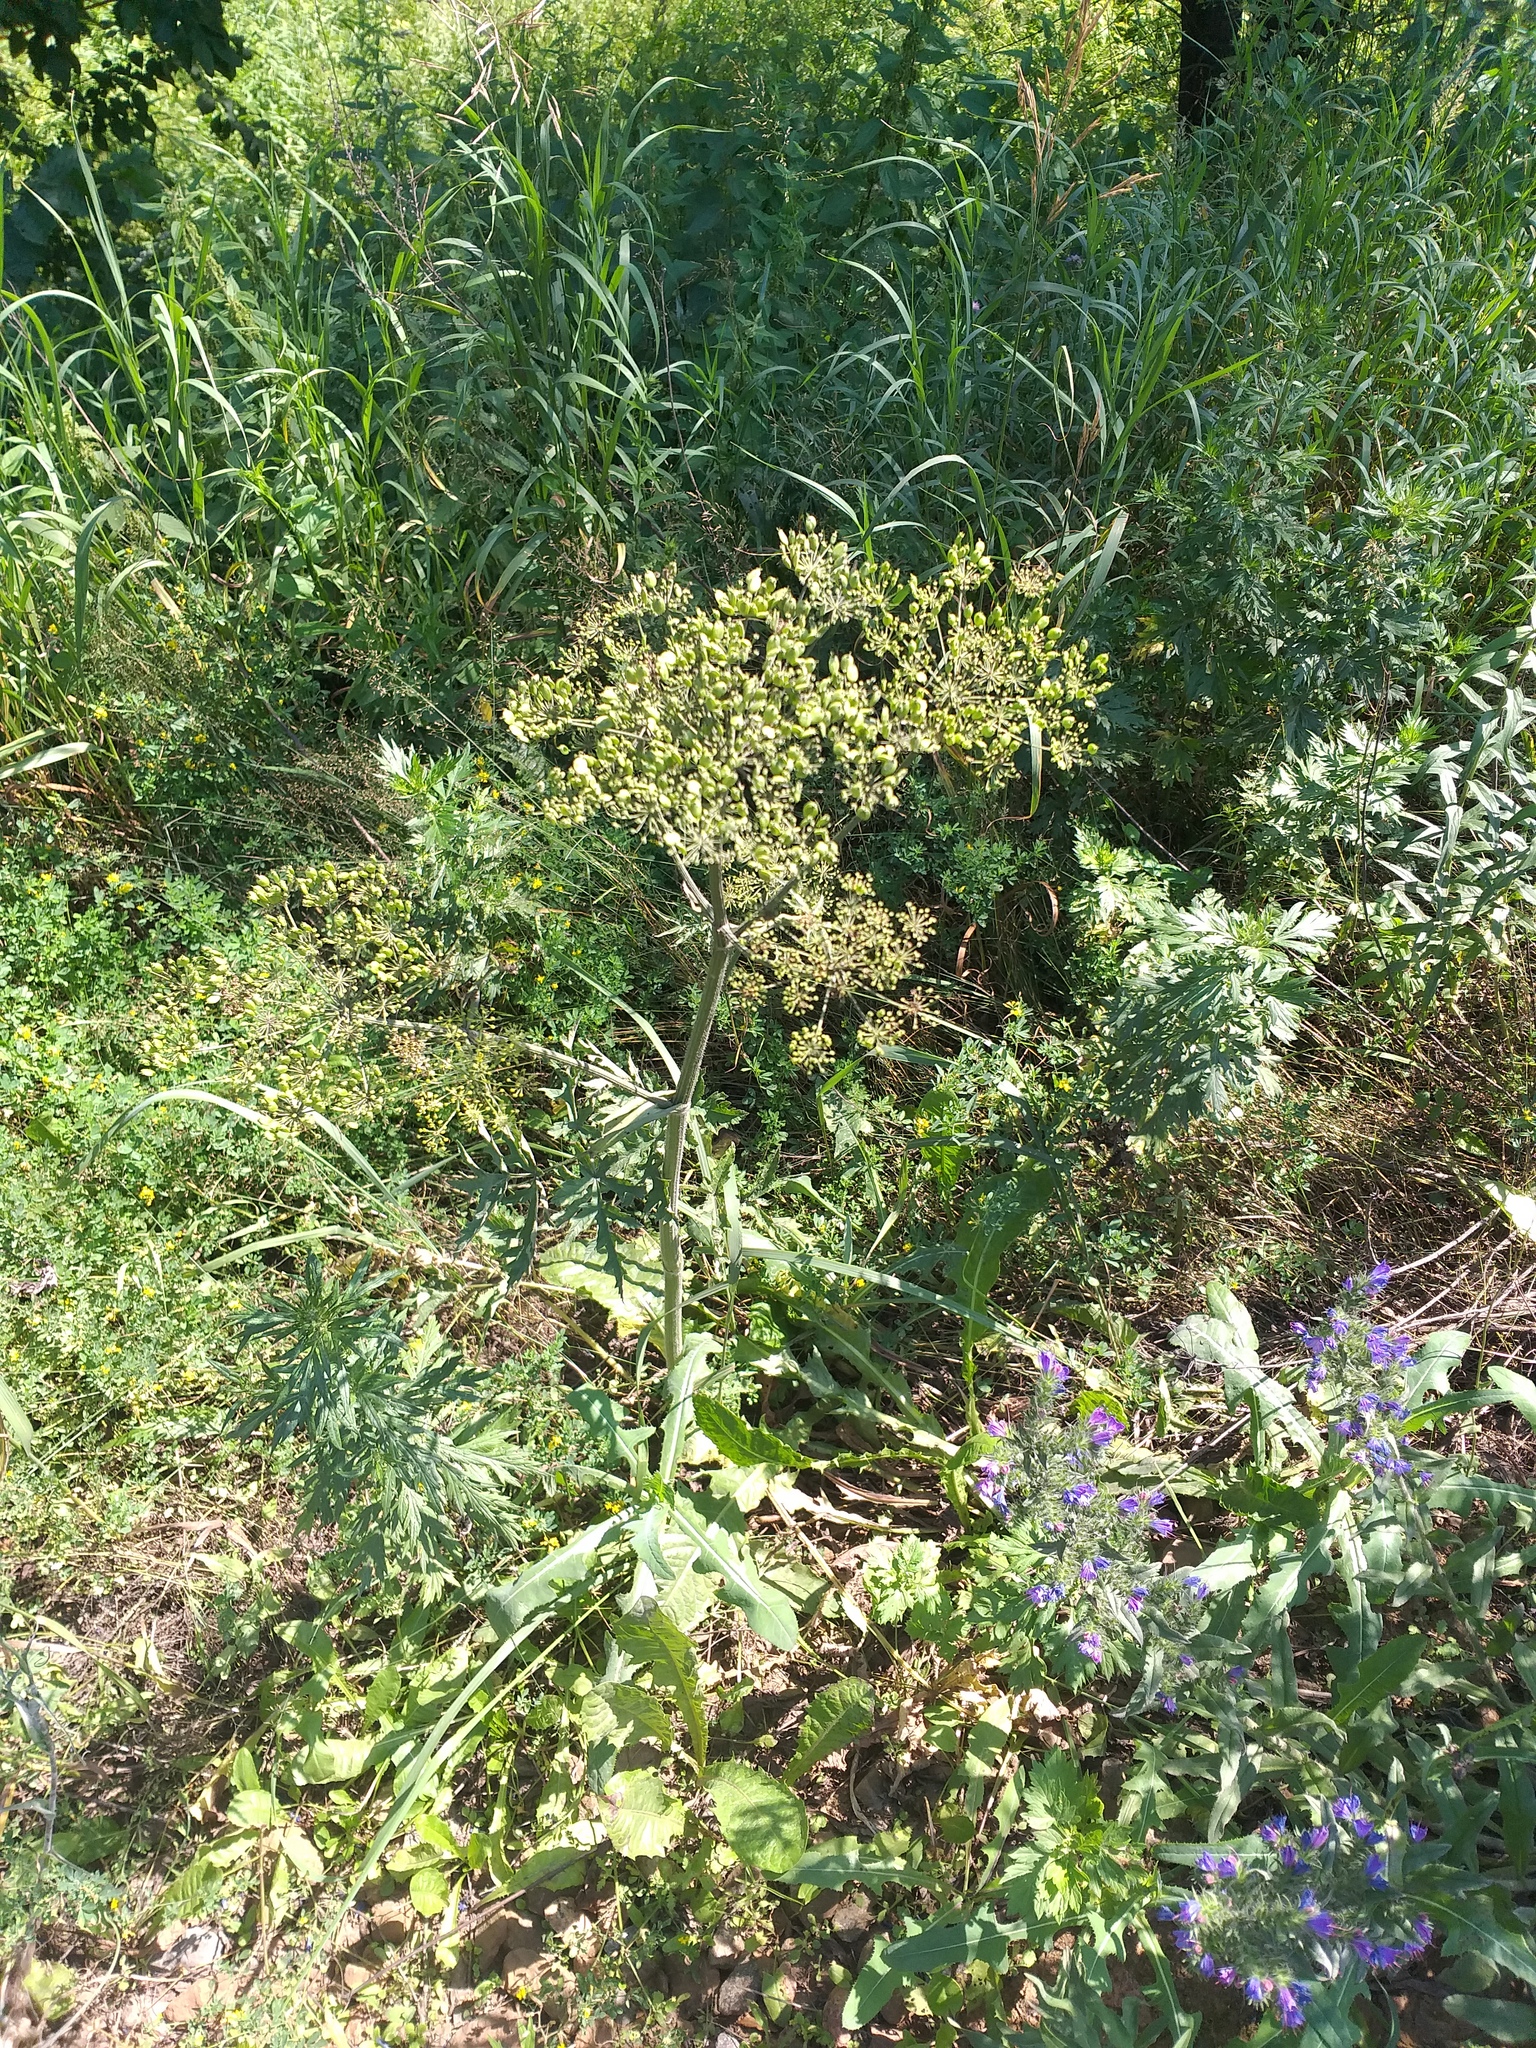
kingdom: Plantae
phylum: Tracheophyta
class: Magnoliopsida
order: Apiales
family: Apiaceae
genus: Heracleum
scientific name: Heracleum sphondylium
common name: Hogweed
